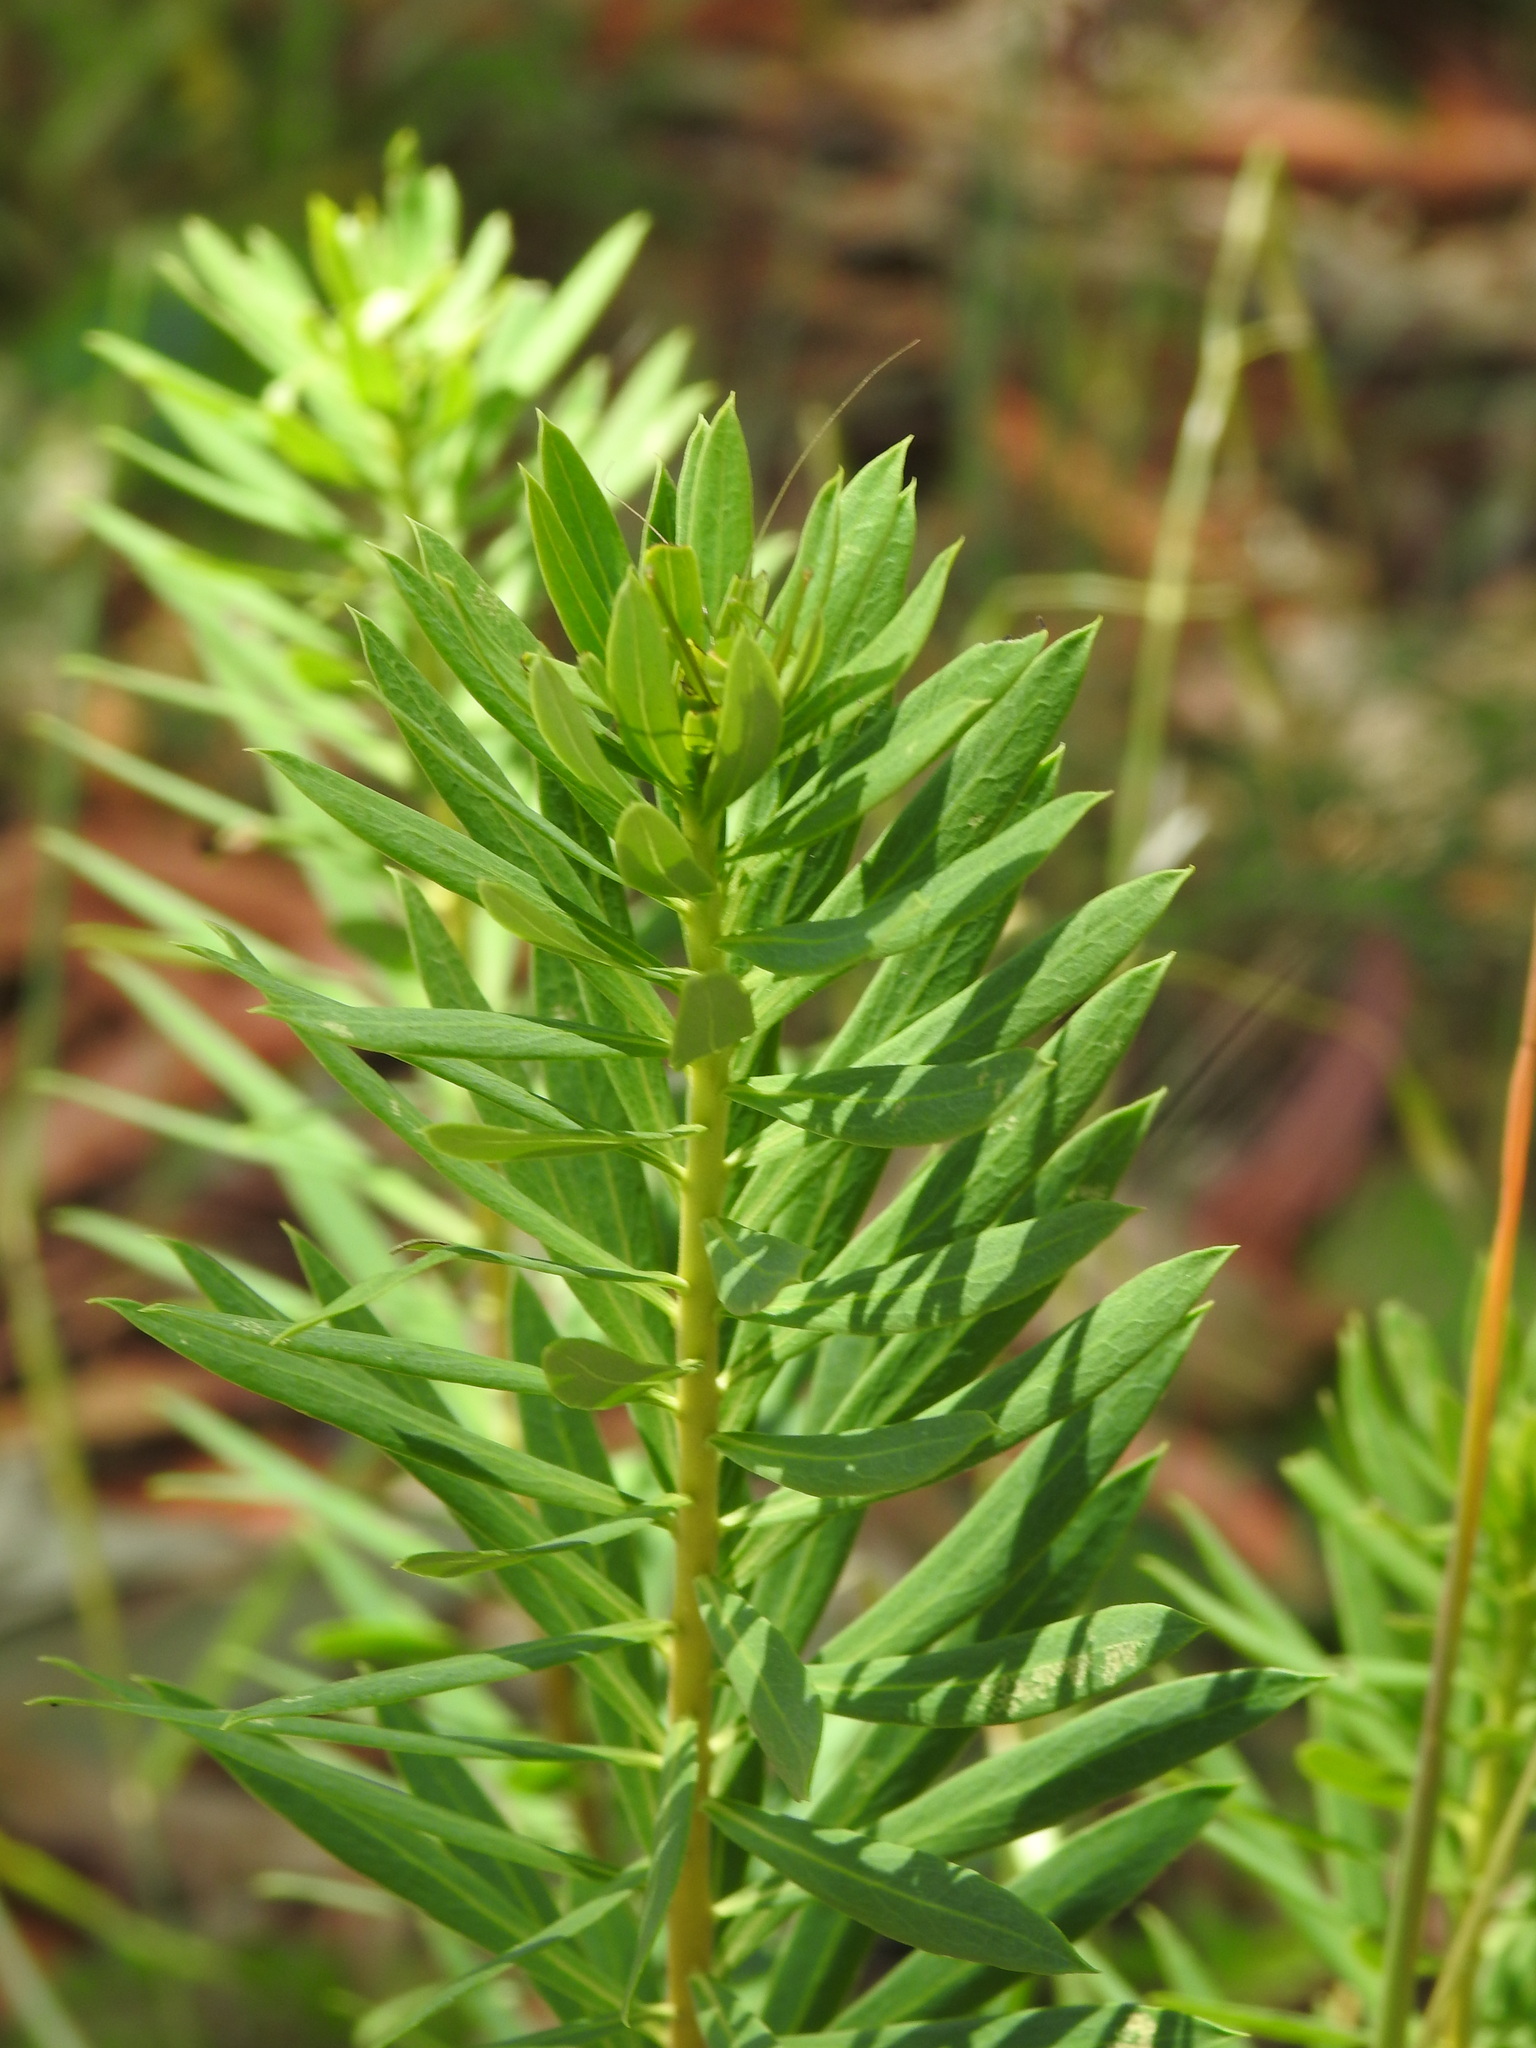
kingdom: Plantae
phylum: Tracheophyta
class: Magnoliopsida
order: Malvales
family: Thymelaeaceae
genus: Daphne
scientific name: Daphne gnidium
